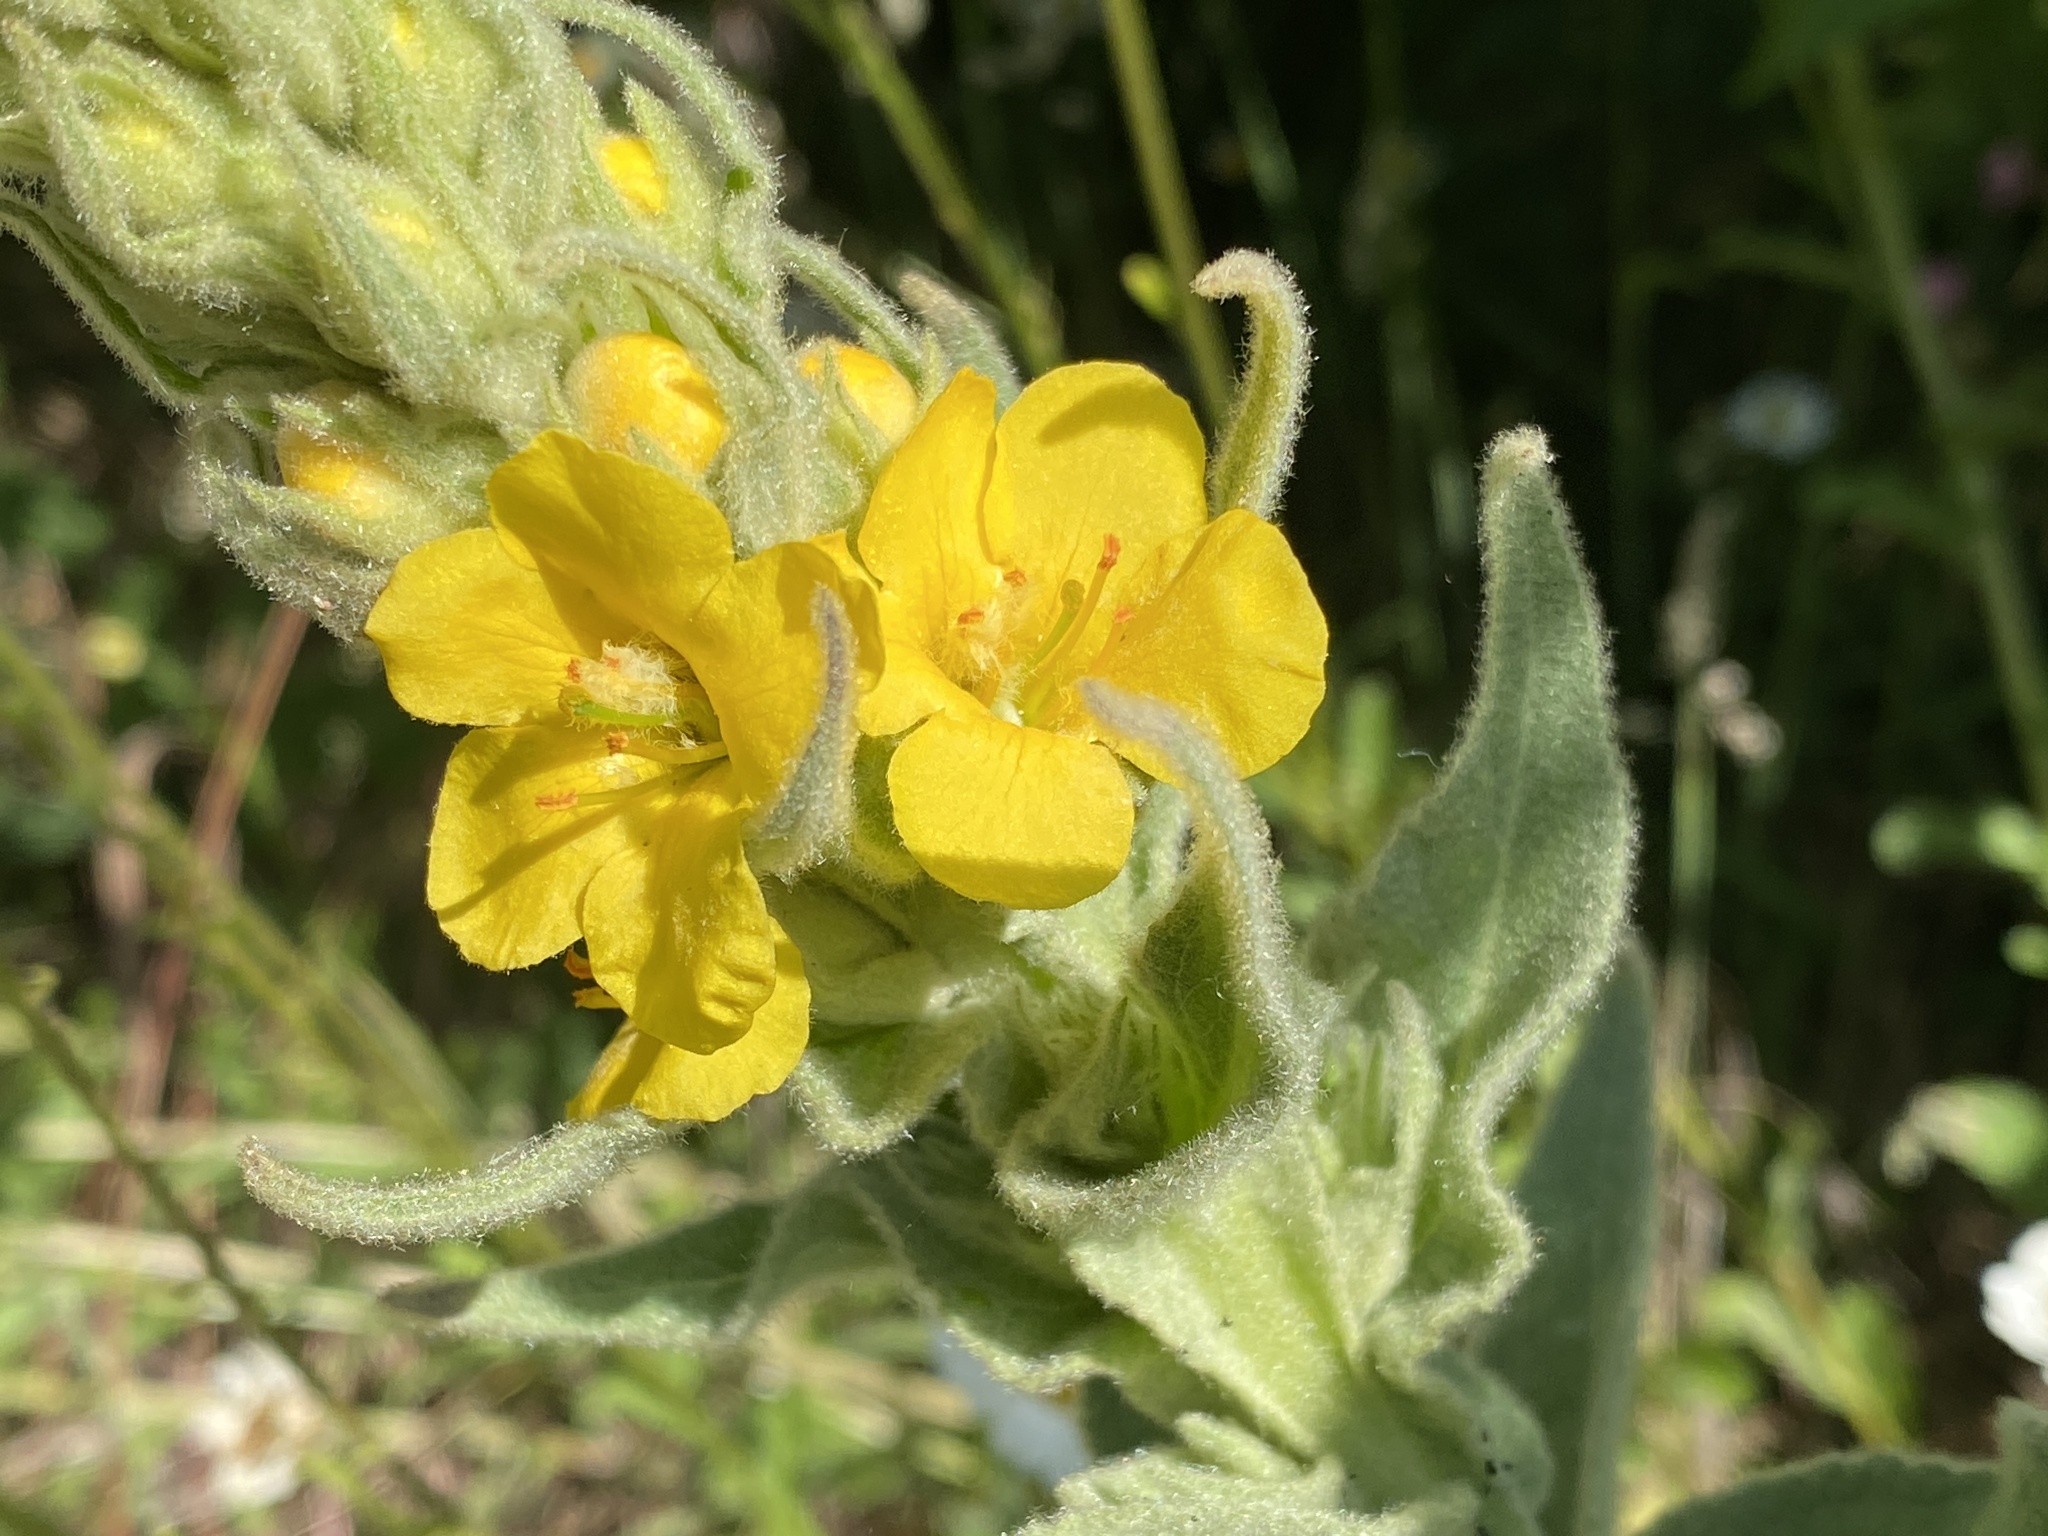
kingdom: Plantae
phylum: Tracheophyta
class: Magnoliopsida
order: Lamiales
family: Scrophulariaceae
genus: Verbascum
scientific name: Verbascum thapsus
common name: Common mullein
